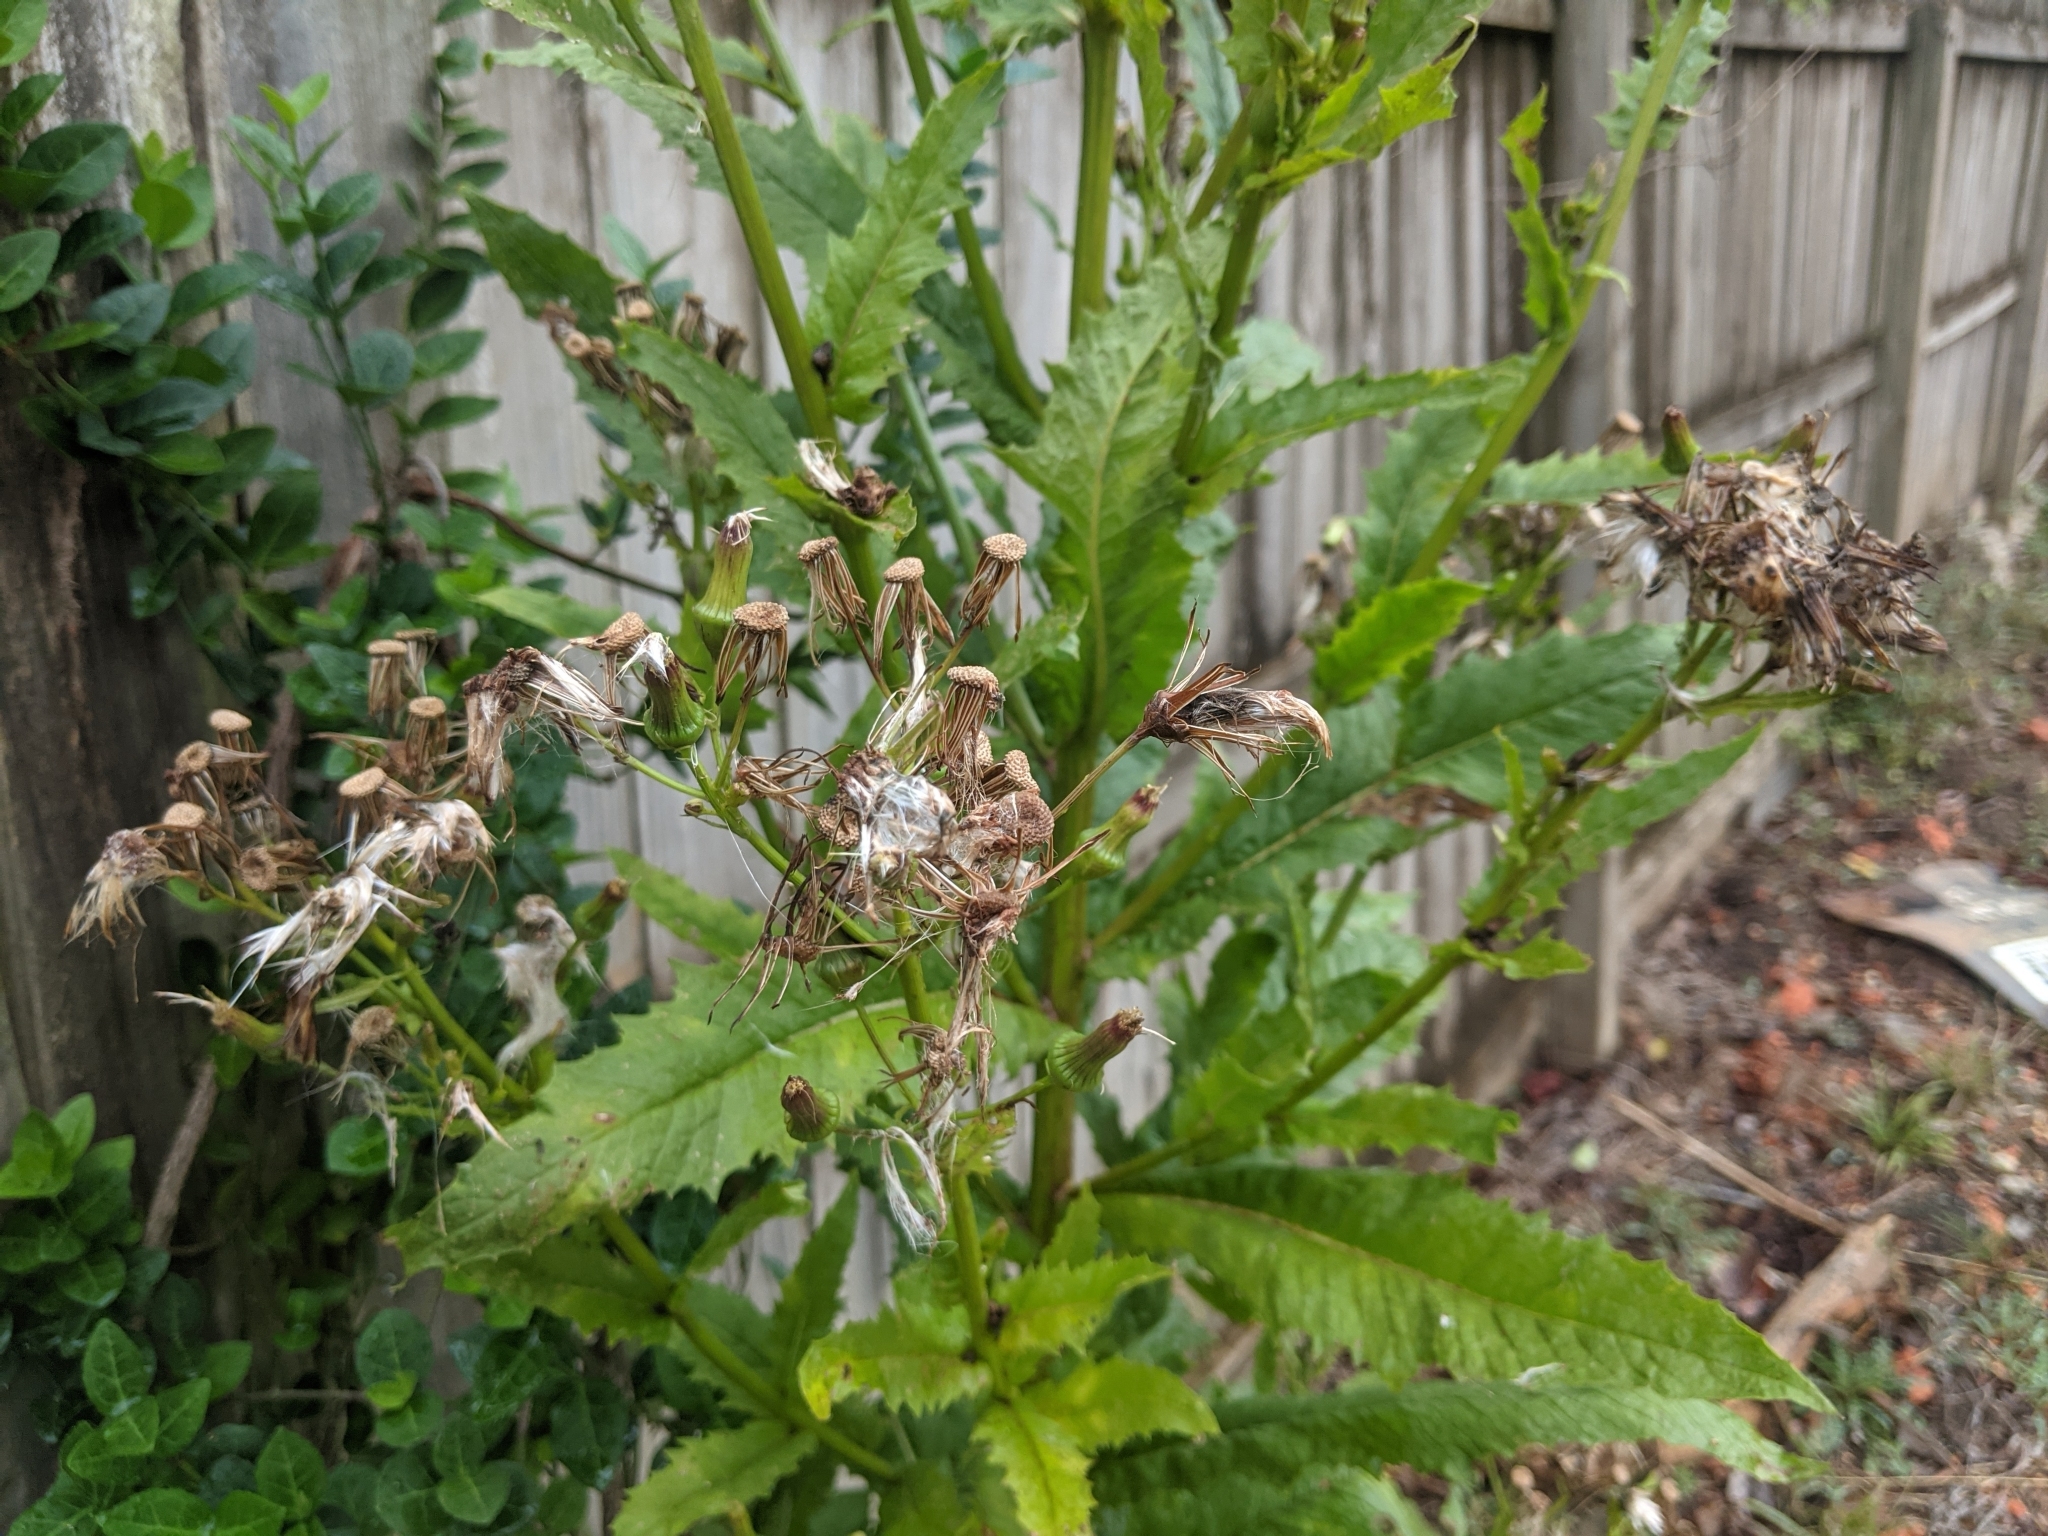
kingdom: Plantae
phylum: Tracheophyta
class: Magnoliopsida
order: Asterales
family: Asteraceae
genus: Erechtites
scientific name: Erechtites hieraciifolius
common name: American burnweed
